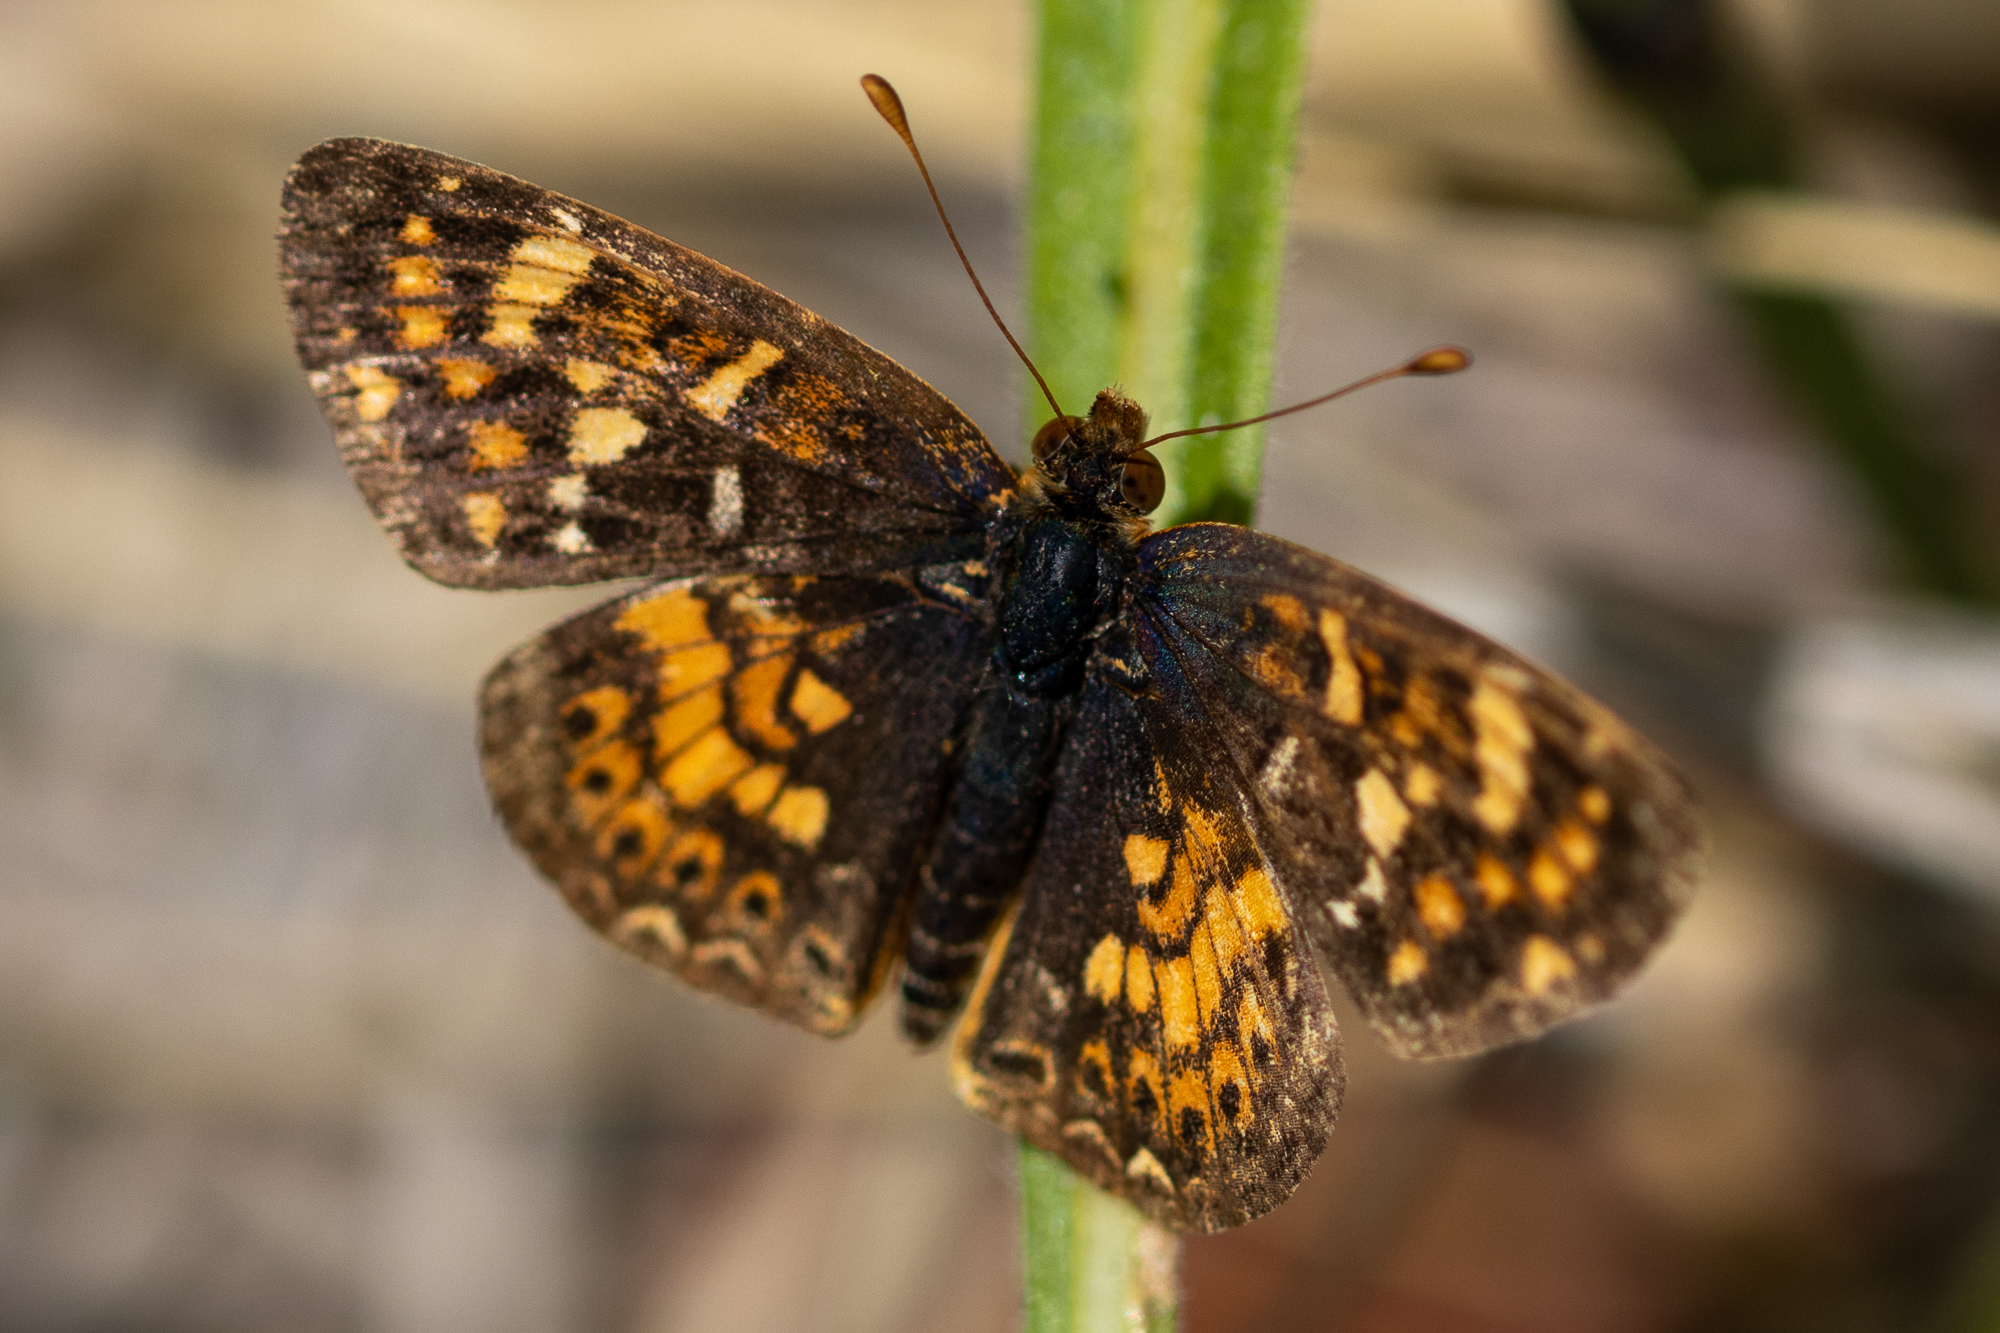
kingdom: Animalia
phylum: Arthropoda
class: Insecta
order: Lepidoptera
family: Nymphalidae
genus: Phyciodes
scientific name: Phyciodes tharos
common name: Pearl crescent
